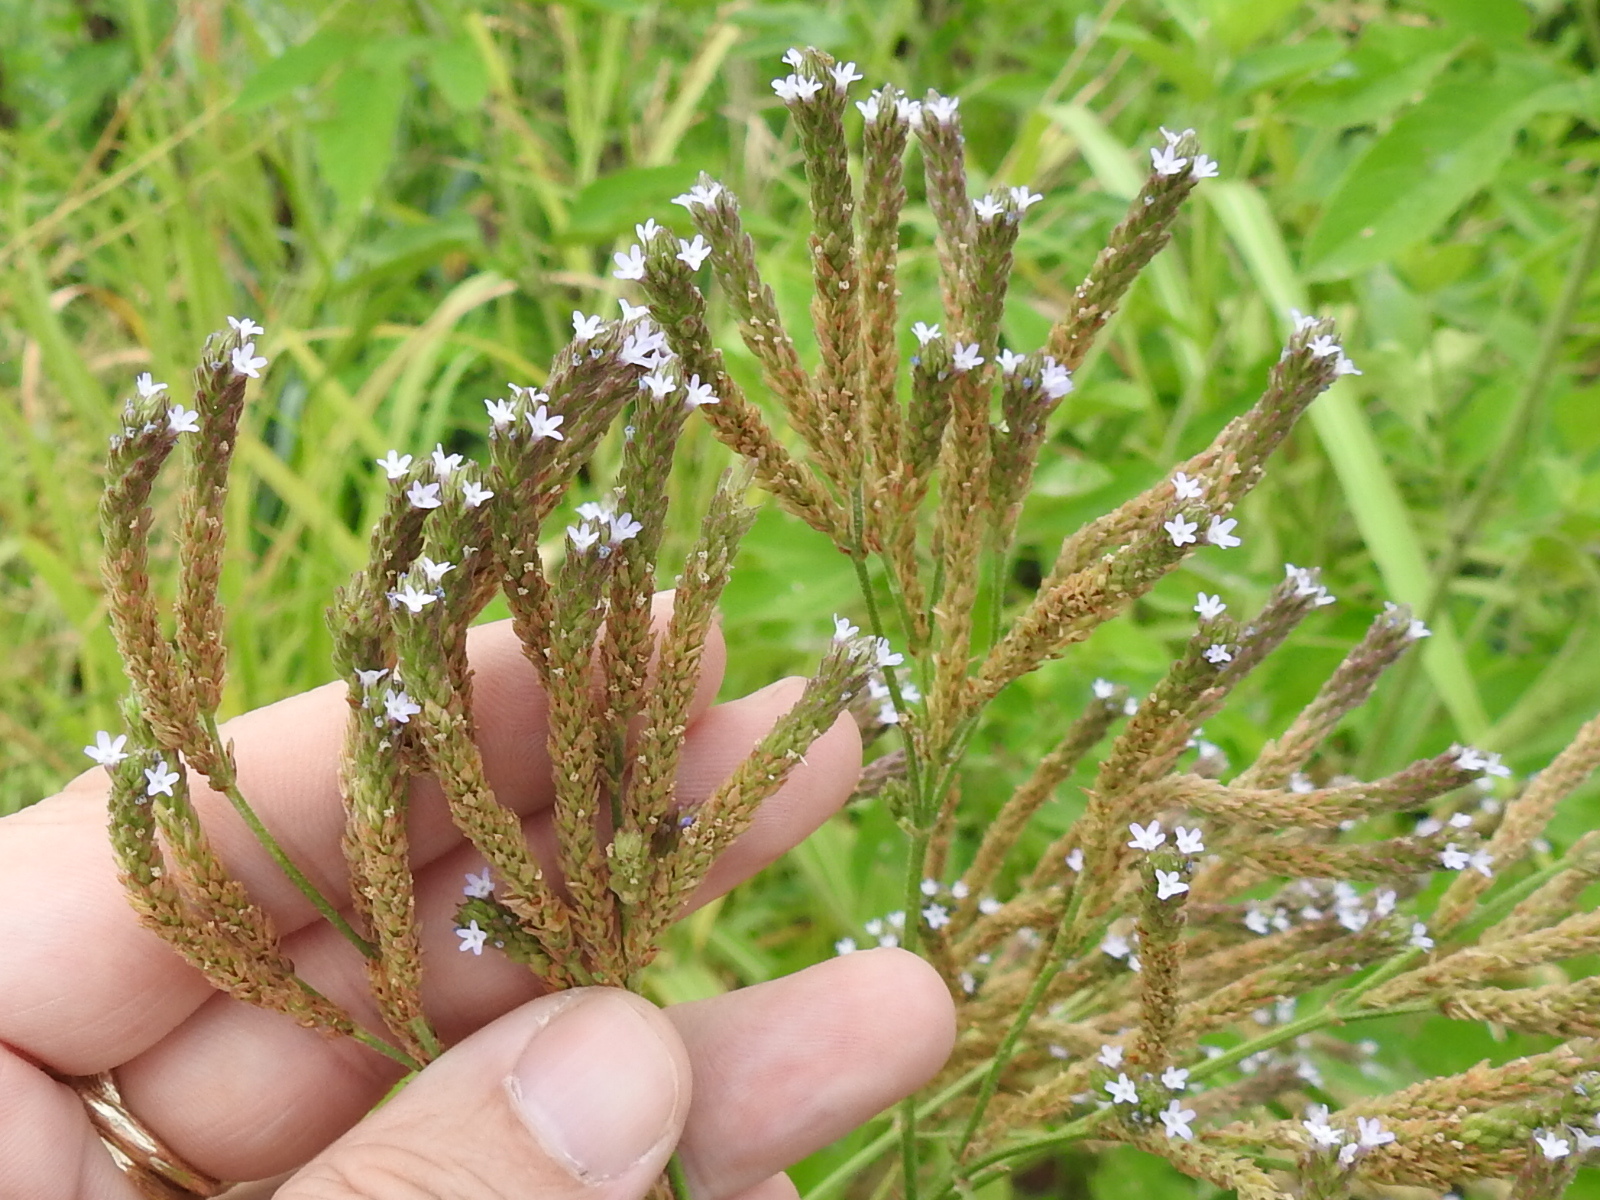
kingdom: Plantae
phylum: Tracheophyta
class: Magnoliopsida
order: Lamiales
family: Verbenaceae
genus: Verbena
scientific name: Verbena brasiliensis
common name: Brazilian vervain
